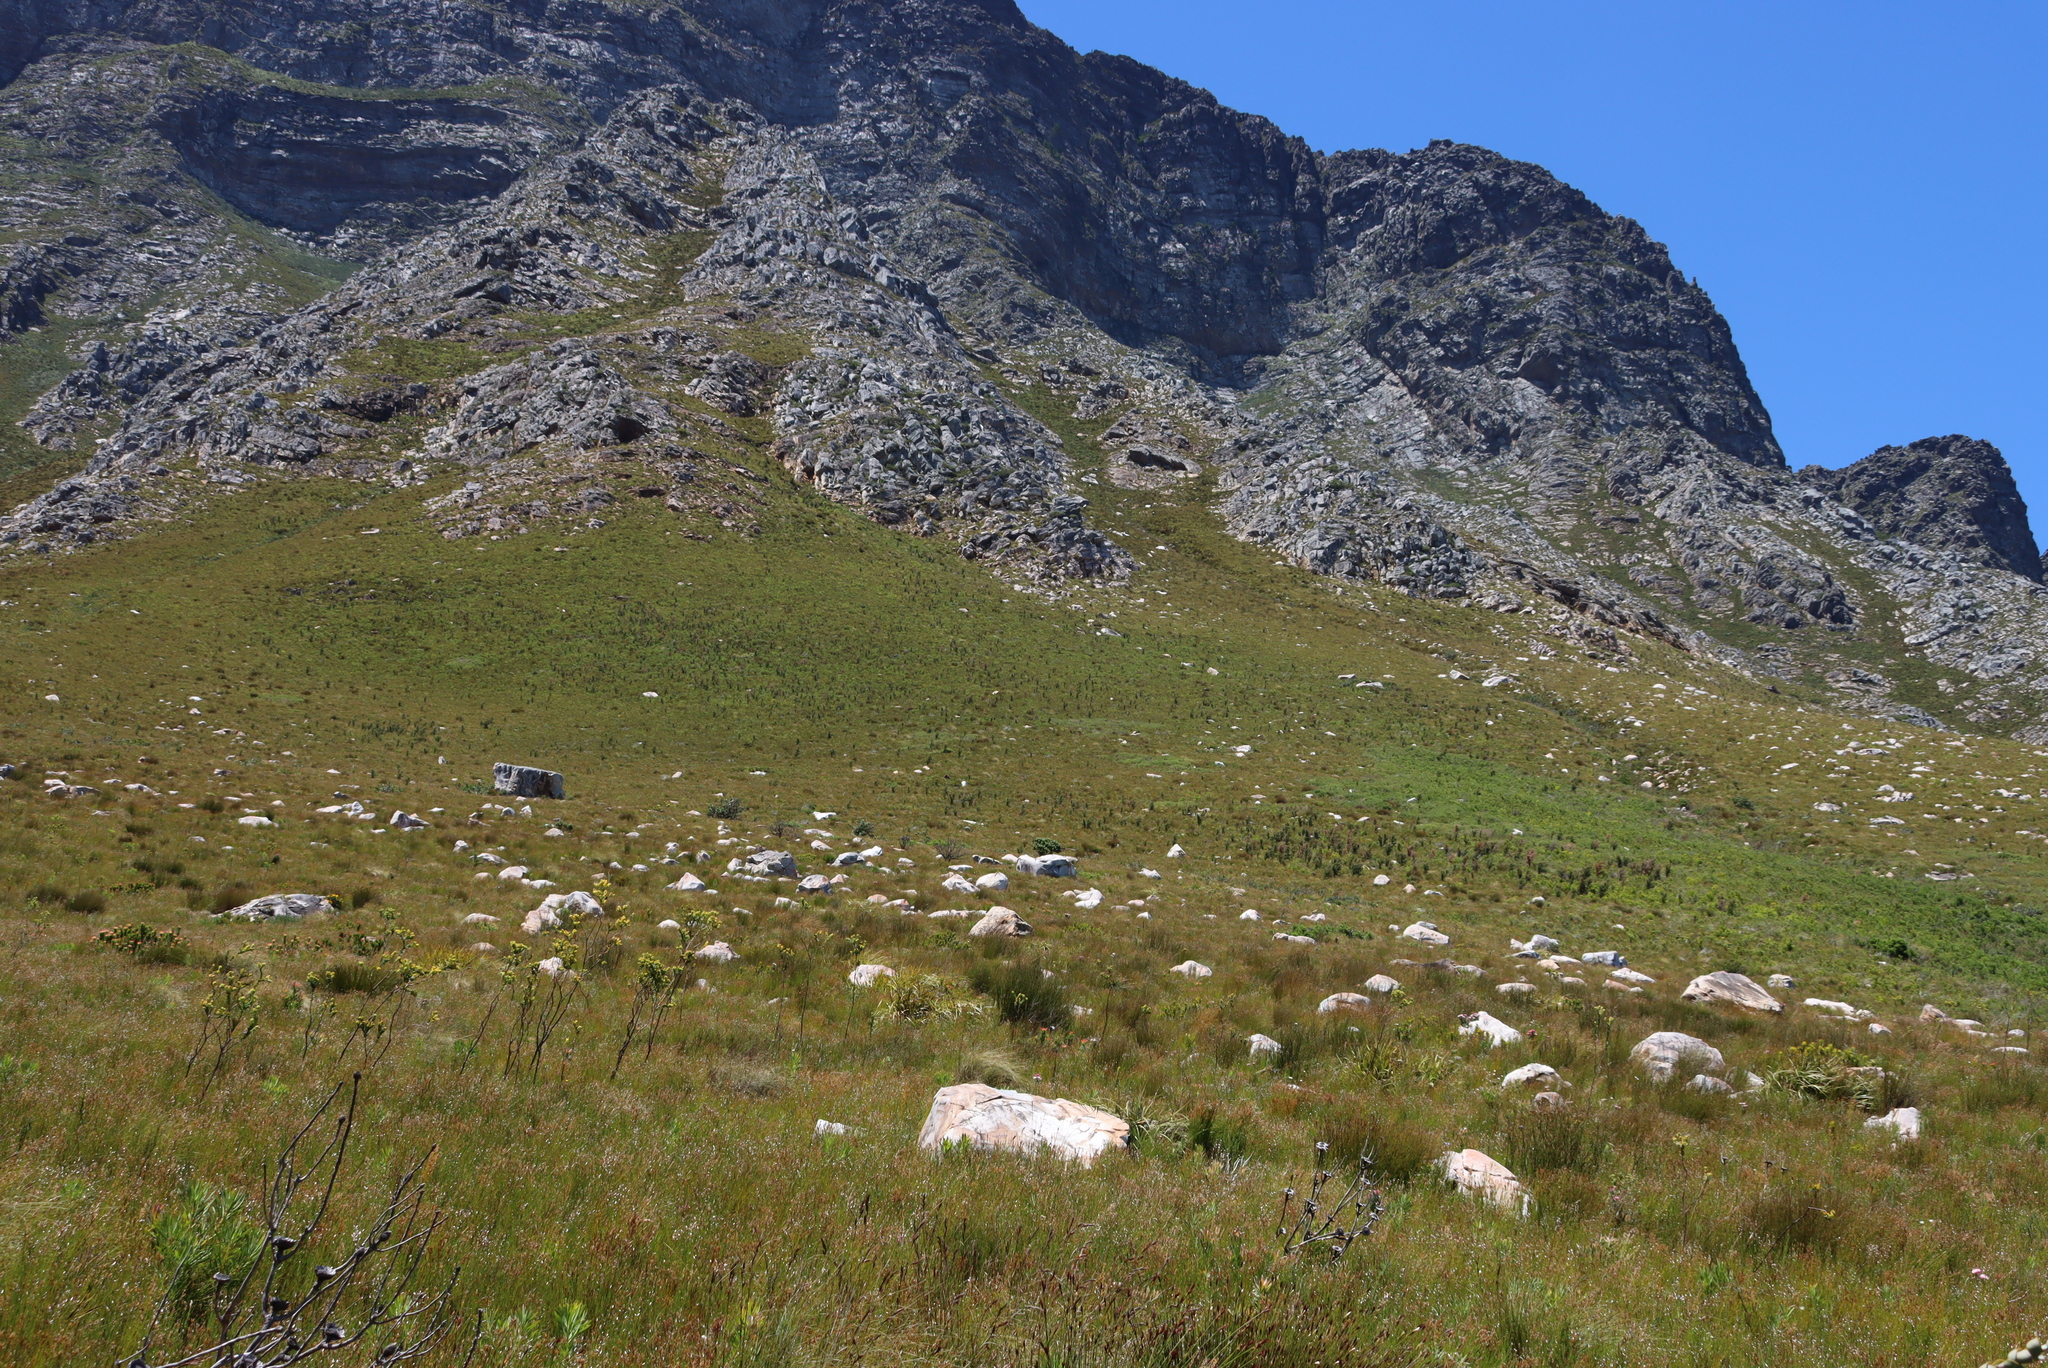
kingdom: Plantae
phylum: Tracheophyta
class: Magnoliopsida
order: Proteales
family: Proteaceae
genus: Hakea
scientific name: Hakea sericea
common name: Needle bush
